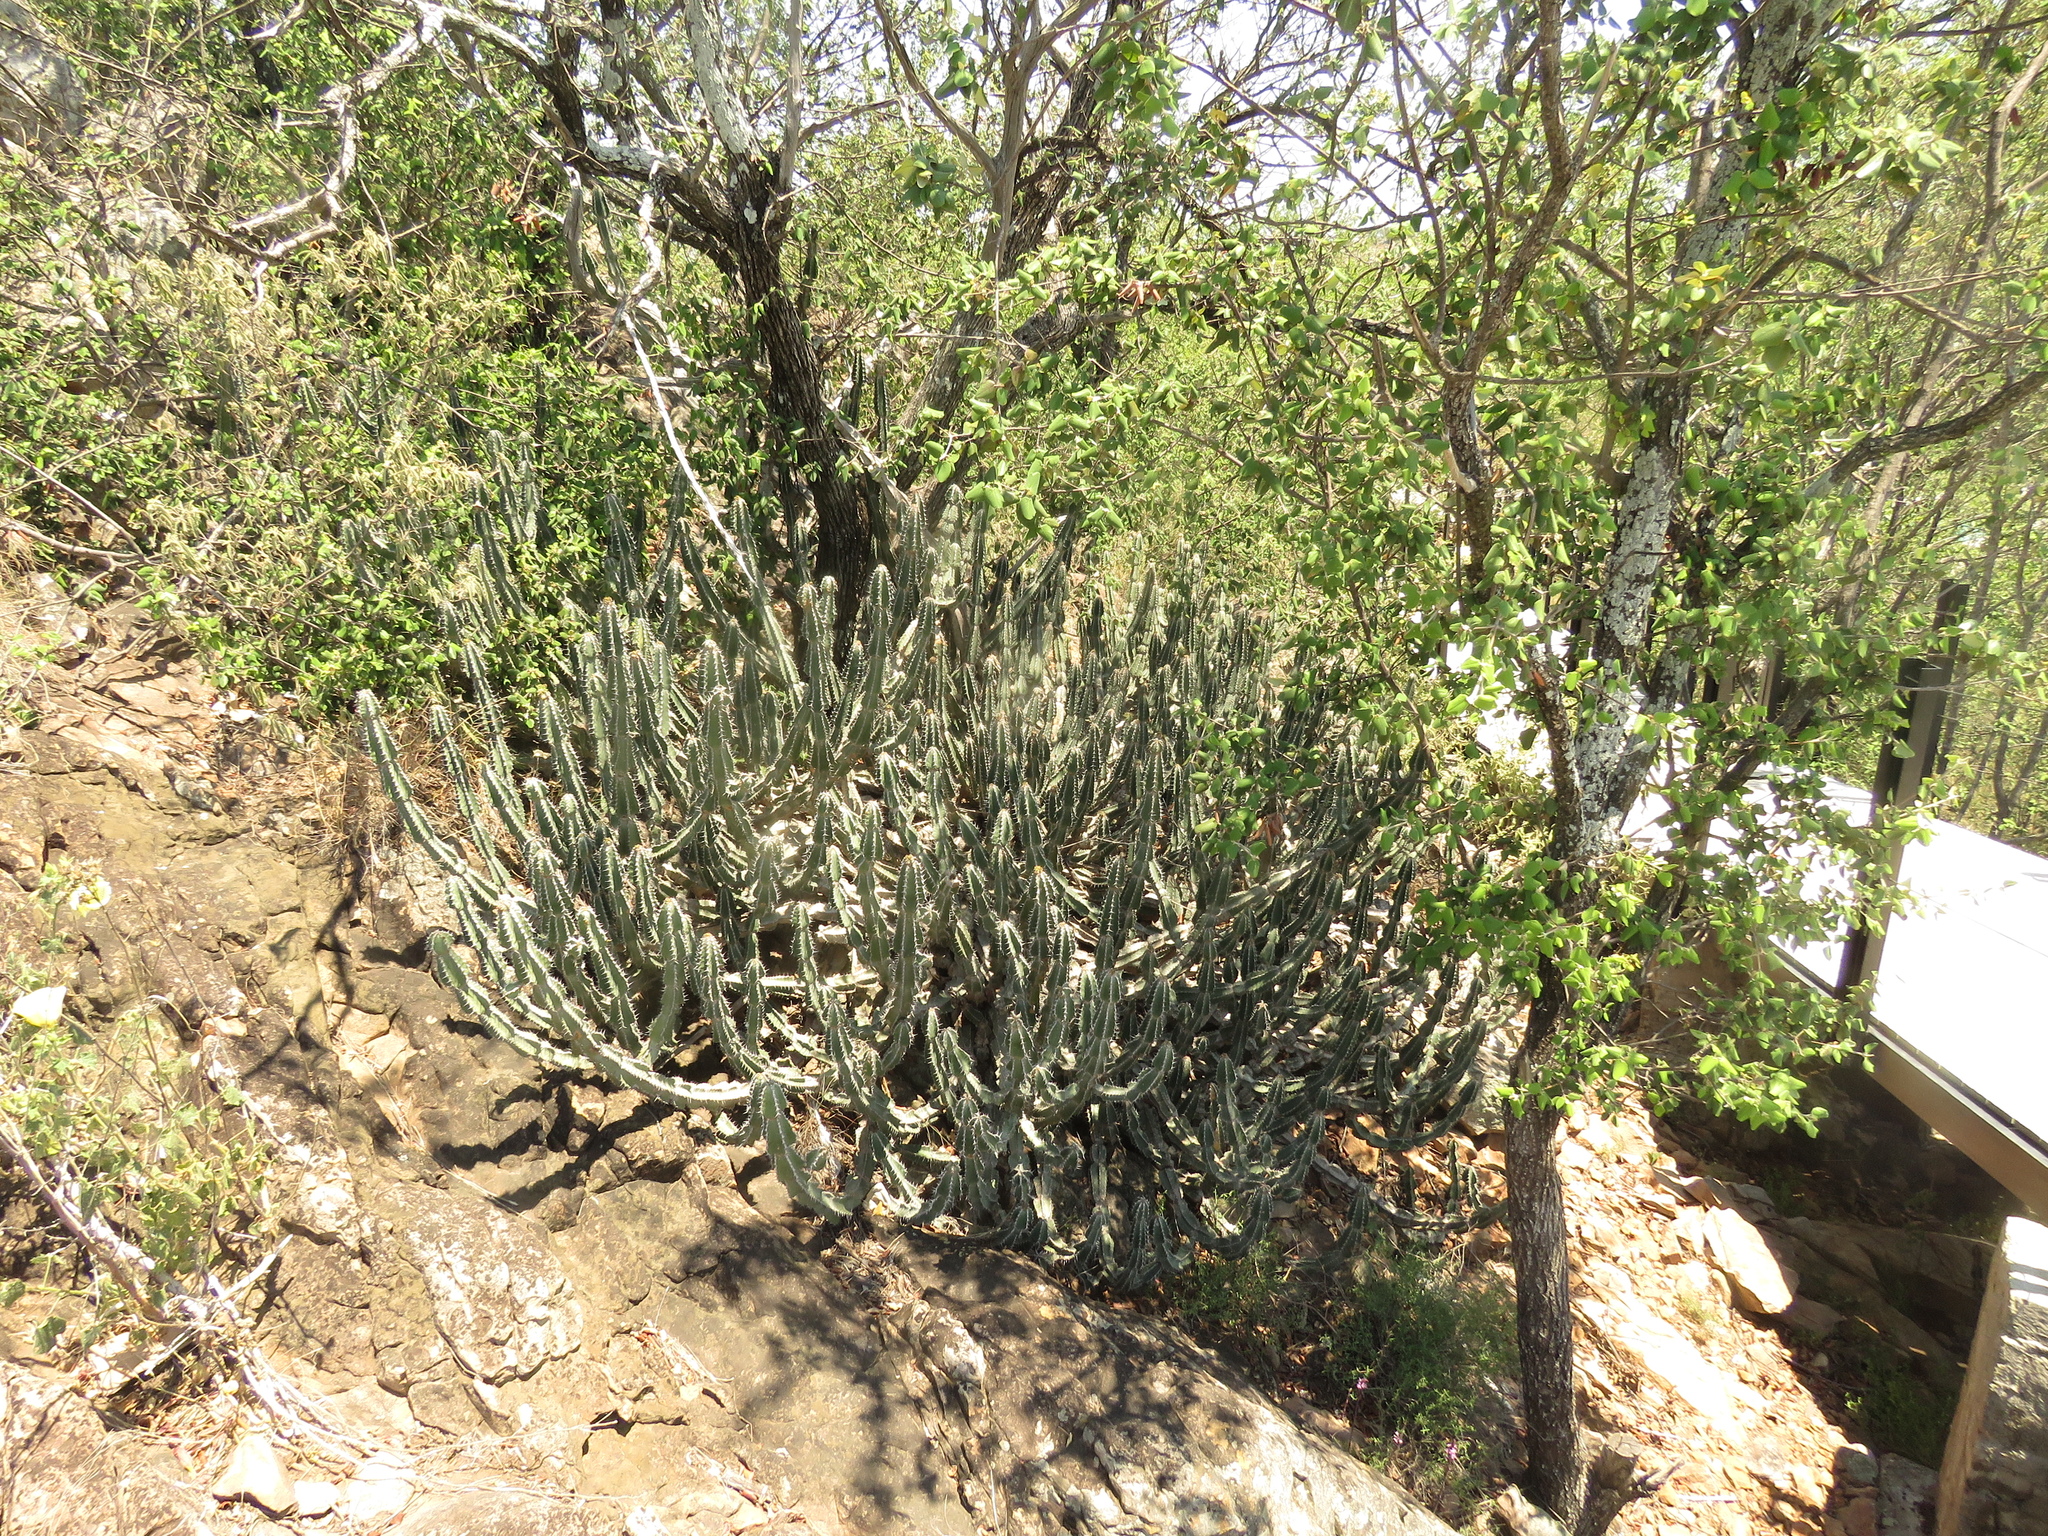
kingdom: Plantae
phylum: Tracheophyta
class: Magnoliopsida
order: Malpighiales
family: Euphorbiaceae
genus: Euphorbia
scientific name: Euphorbia rowlandii
